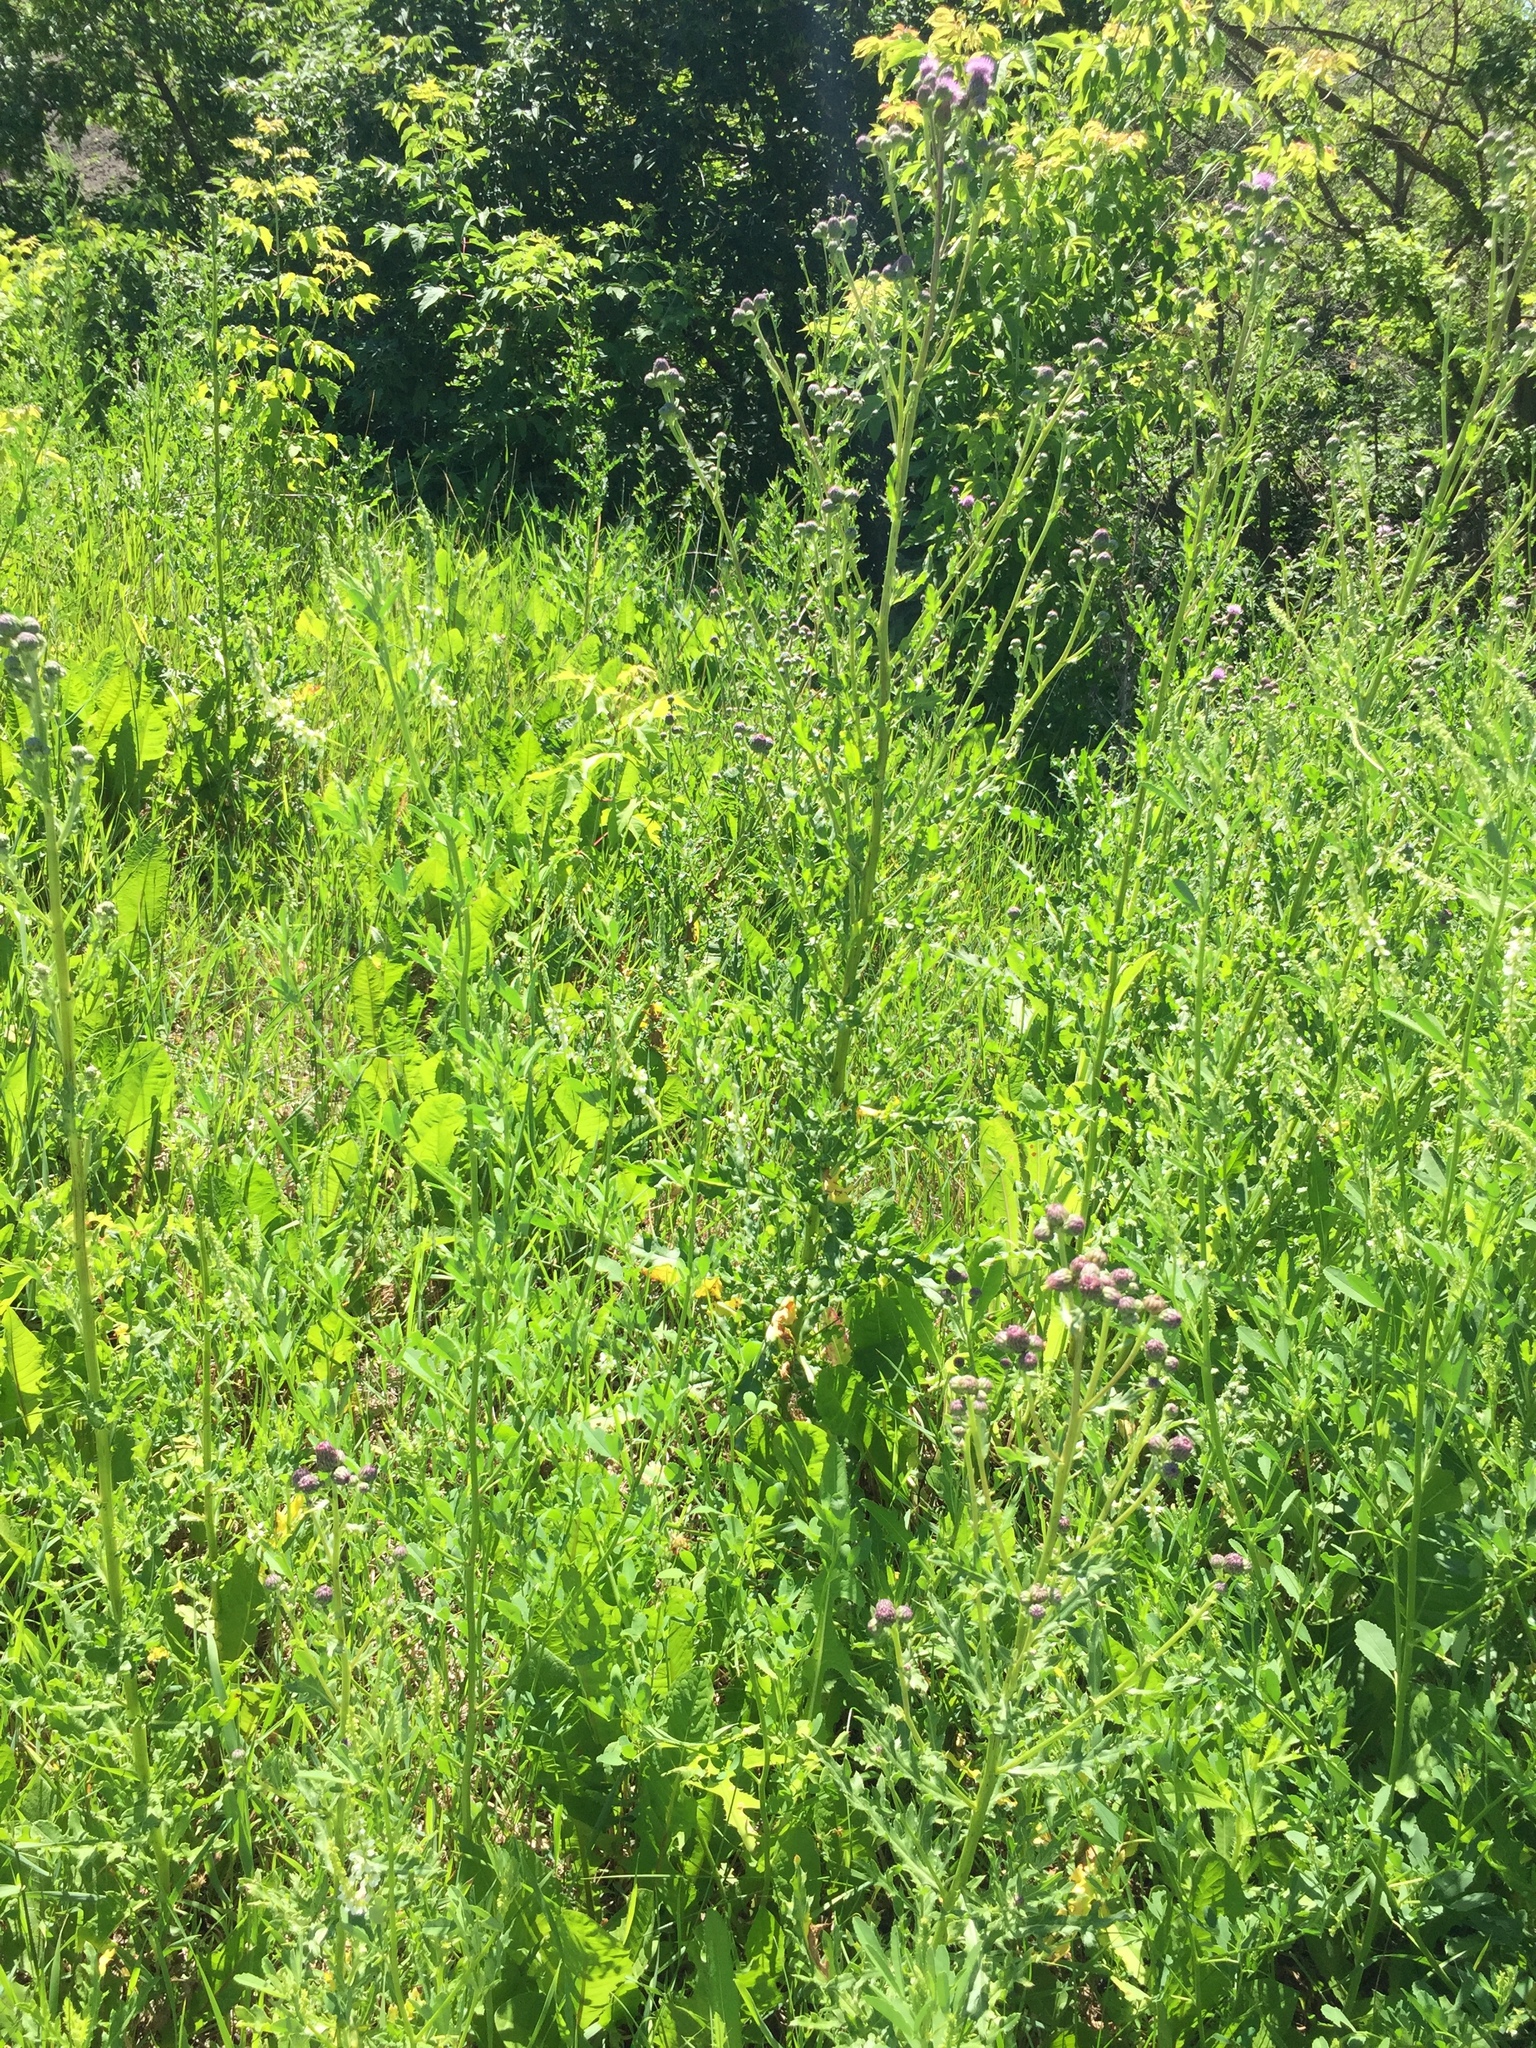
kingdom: Plantae
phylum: Tracheophyta
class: Magnoliopsida
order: Asterales
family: Asteraceae
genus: Cirsium
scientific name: Cirsium arvense
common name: Creeping thistle
